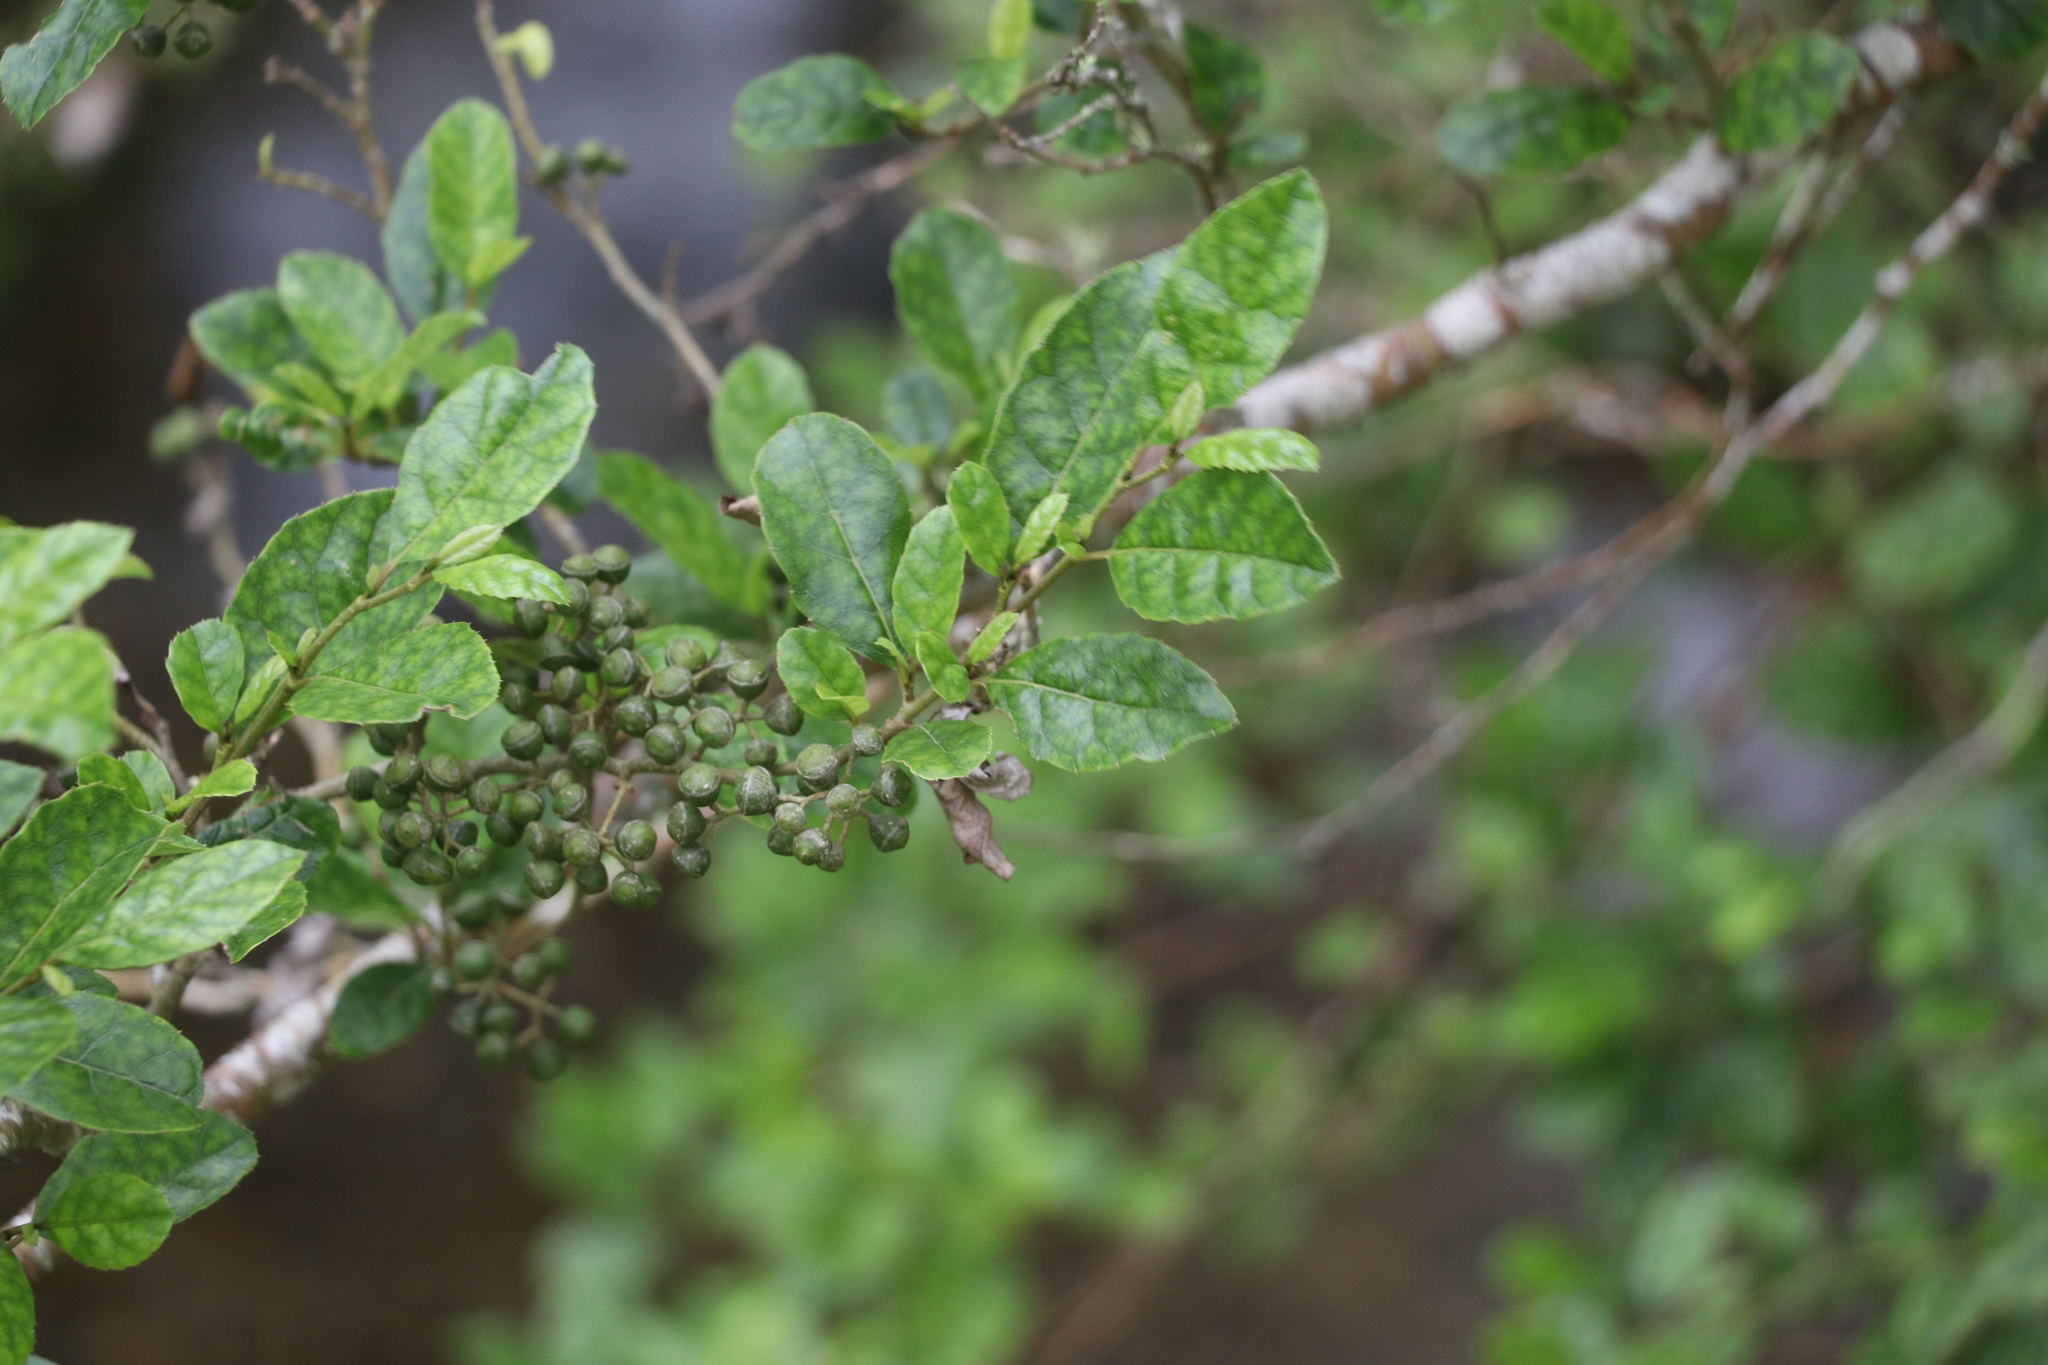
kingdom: Plantae
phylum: Tracheophyta
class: Magnoliopsida
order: Asterales
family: Rousseaceae
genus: Carpodetus
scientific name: Carpodetus serratus
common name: White mapau
